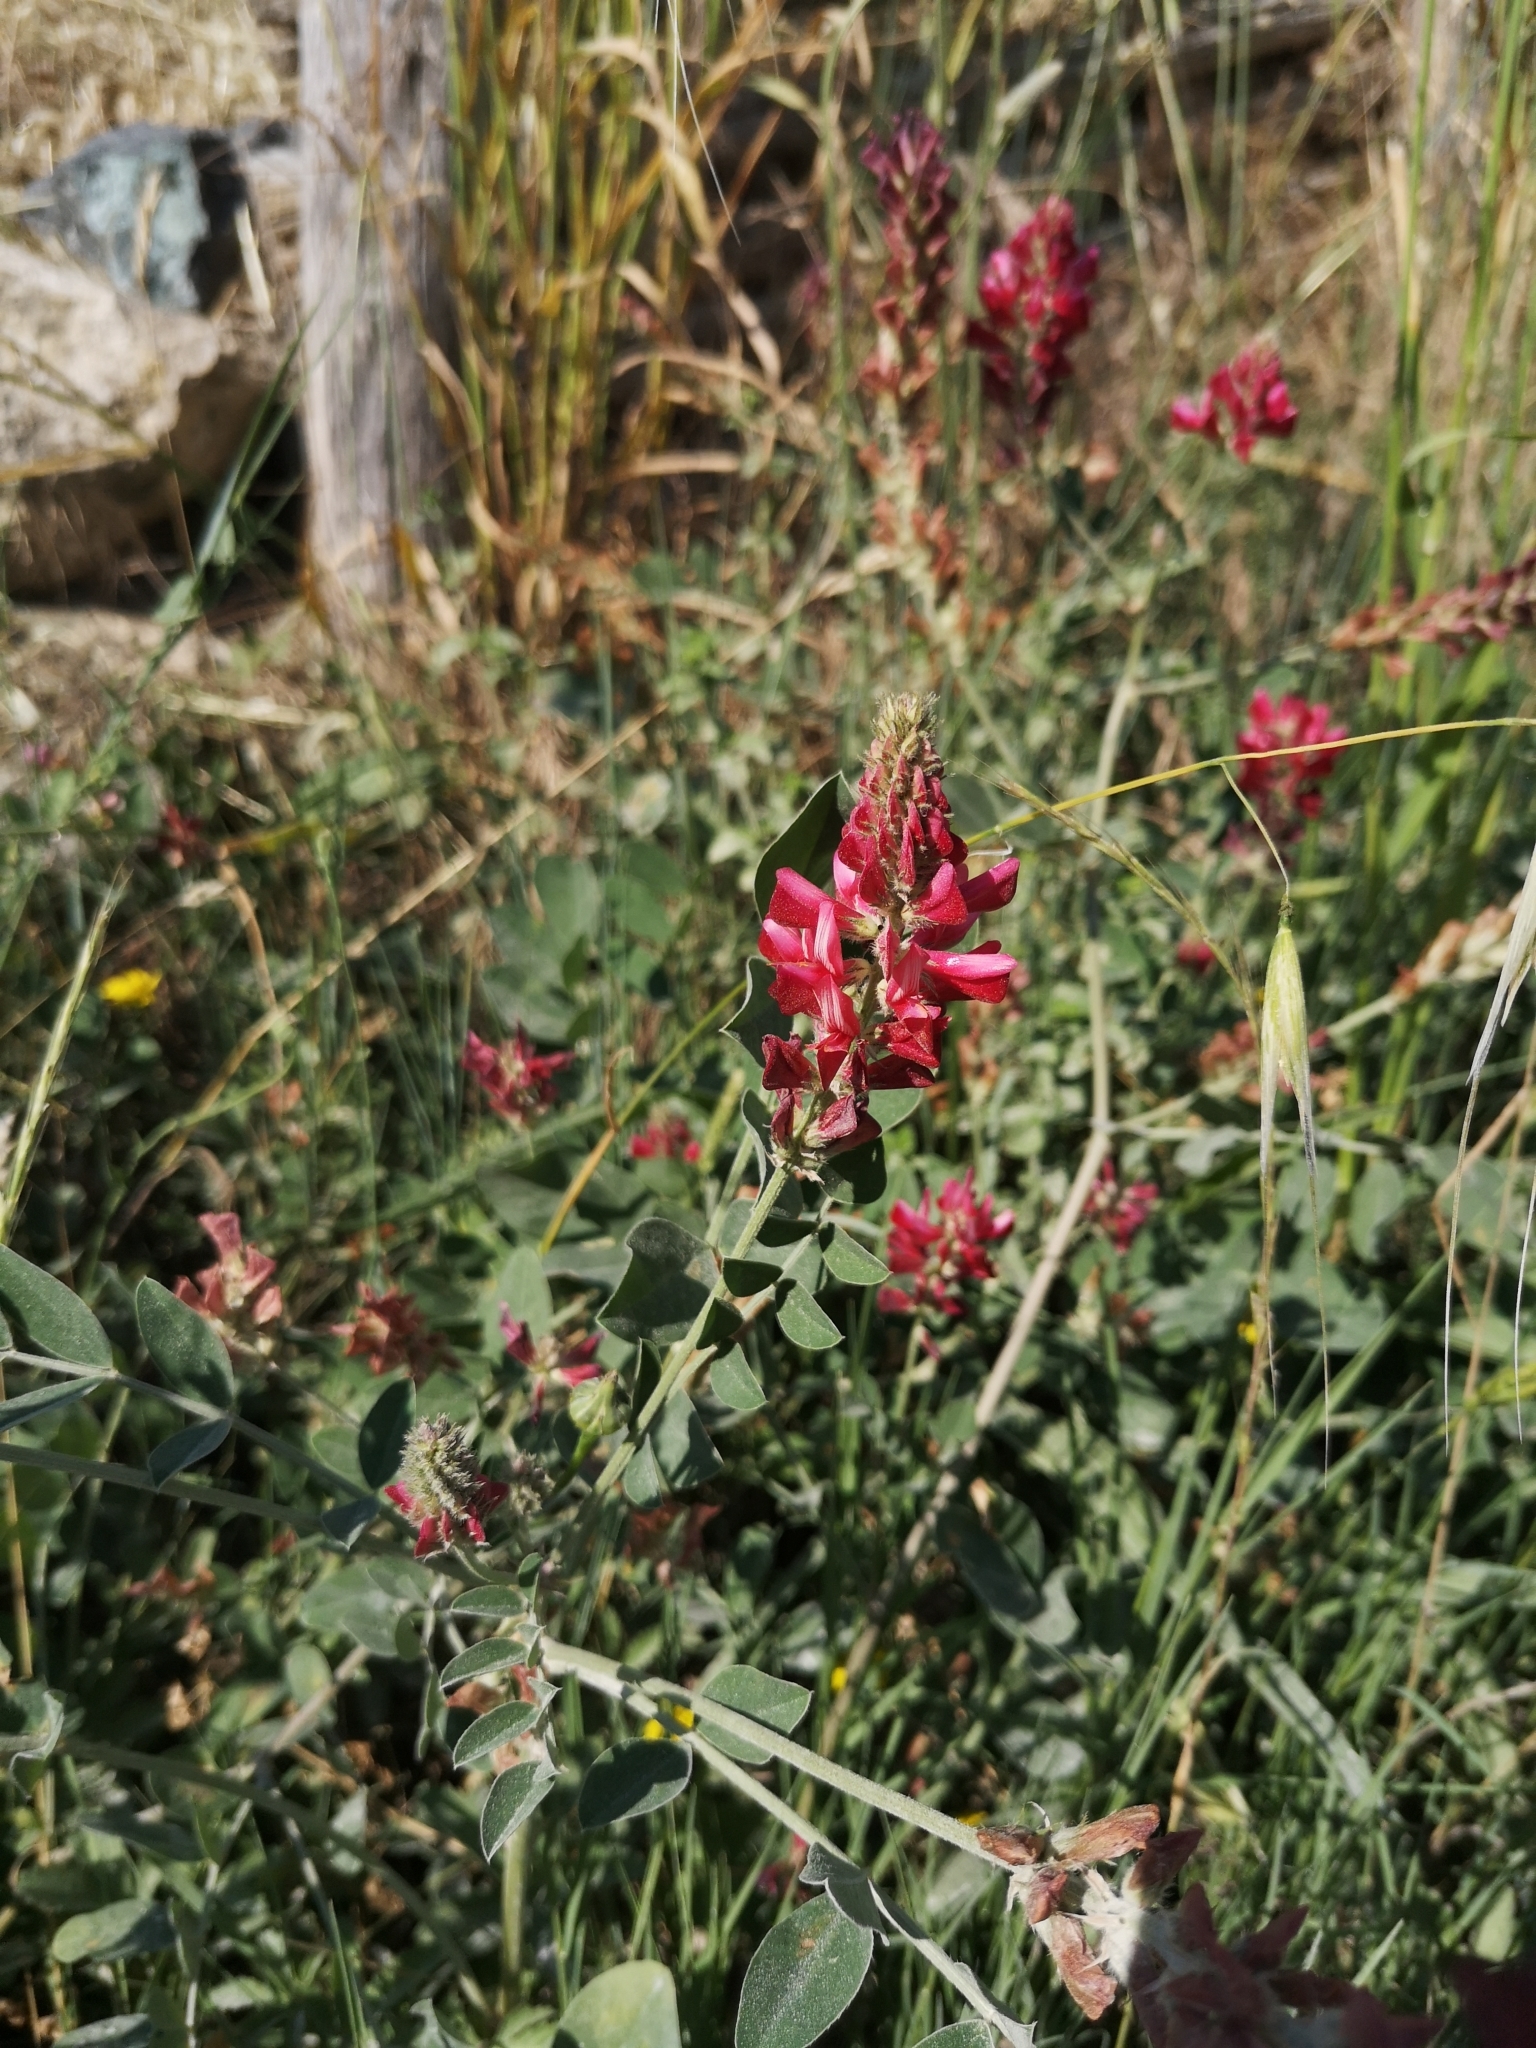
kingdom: Plantae
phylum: Tracheophyta
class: Magnoliopsida
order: Fabales
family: Fabaceae
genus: Sulla
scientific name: Sulla coronaria
